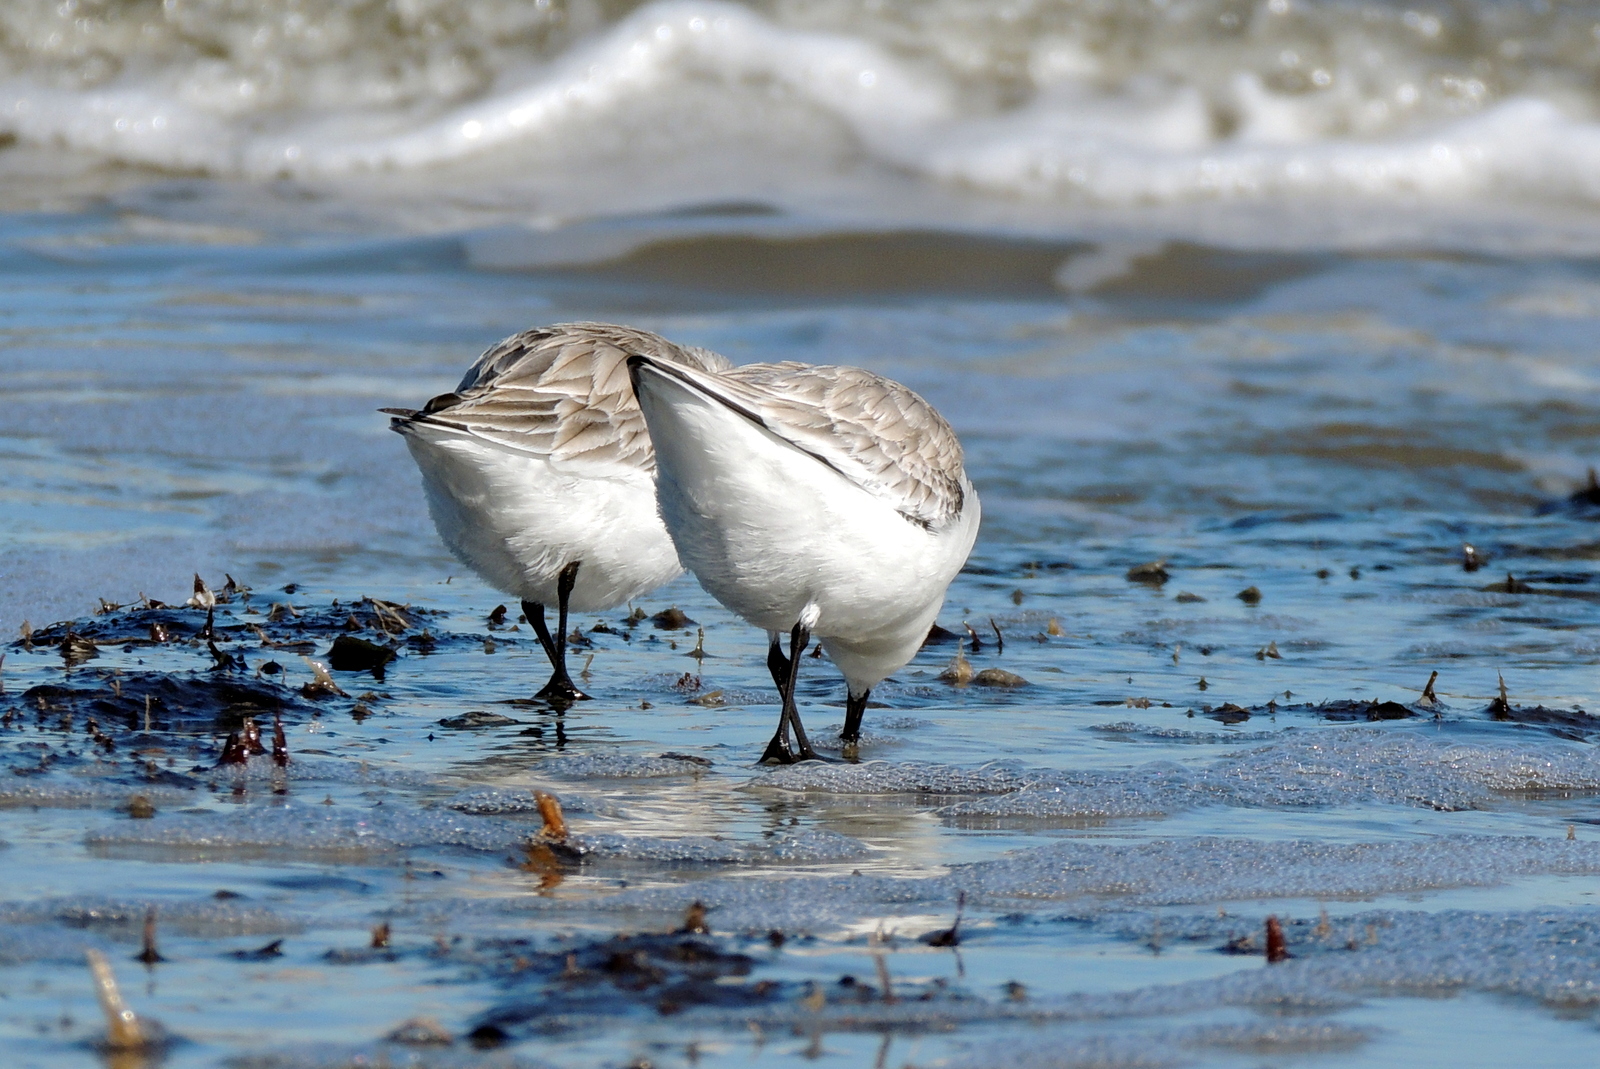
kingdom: Animalia
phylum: Chordata
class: Aves
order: Charadriiformes
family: Scolopacidae
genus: Calidris
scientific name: Calidris alba
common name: Sanderling
